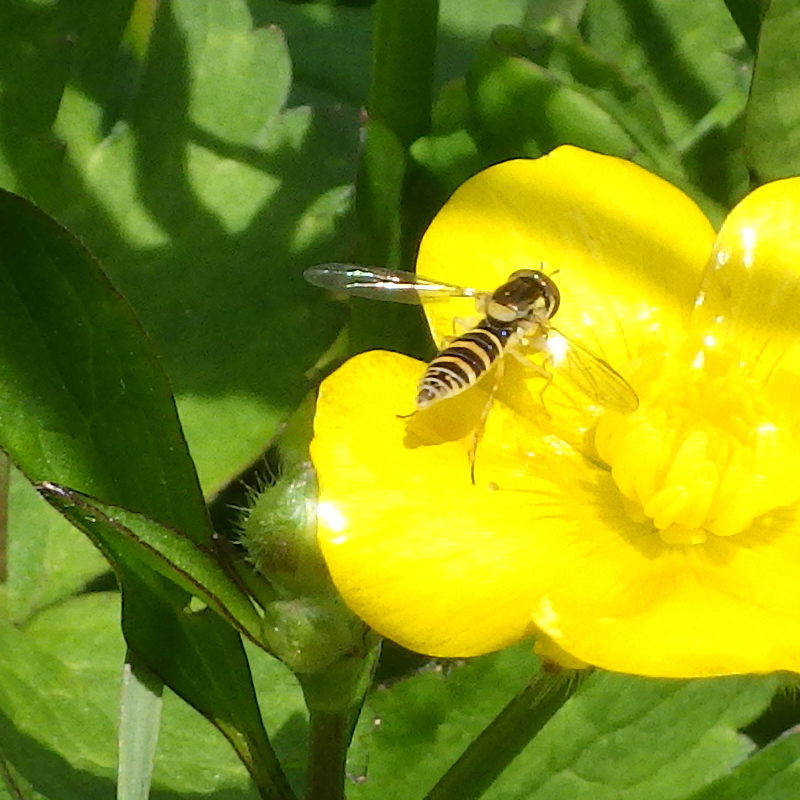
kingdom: Animalia
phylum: Arthropoda
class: Insecta
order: Diptera
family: Syrphidae
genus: Sphaerophoria
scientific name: Sphaerophoria
